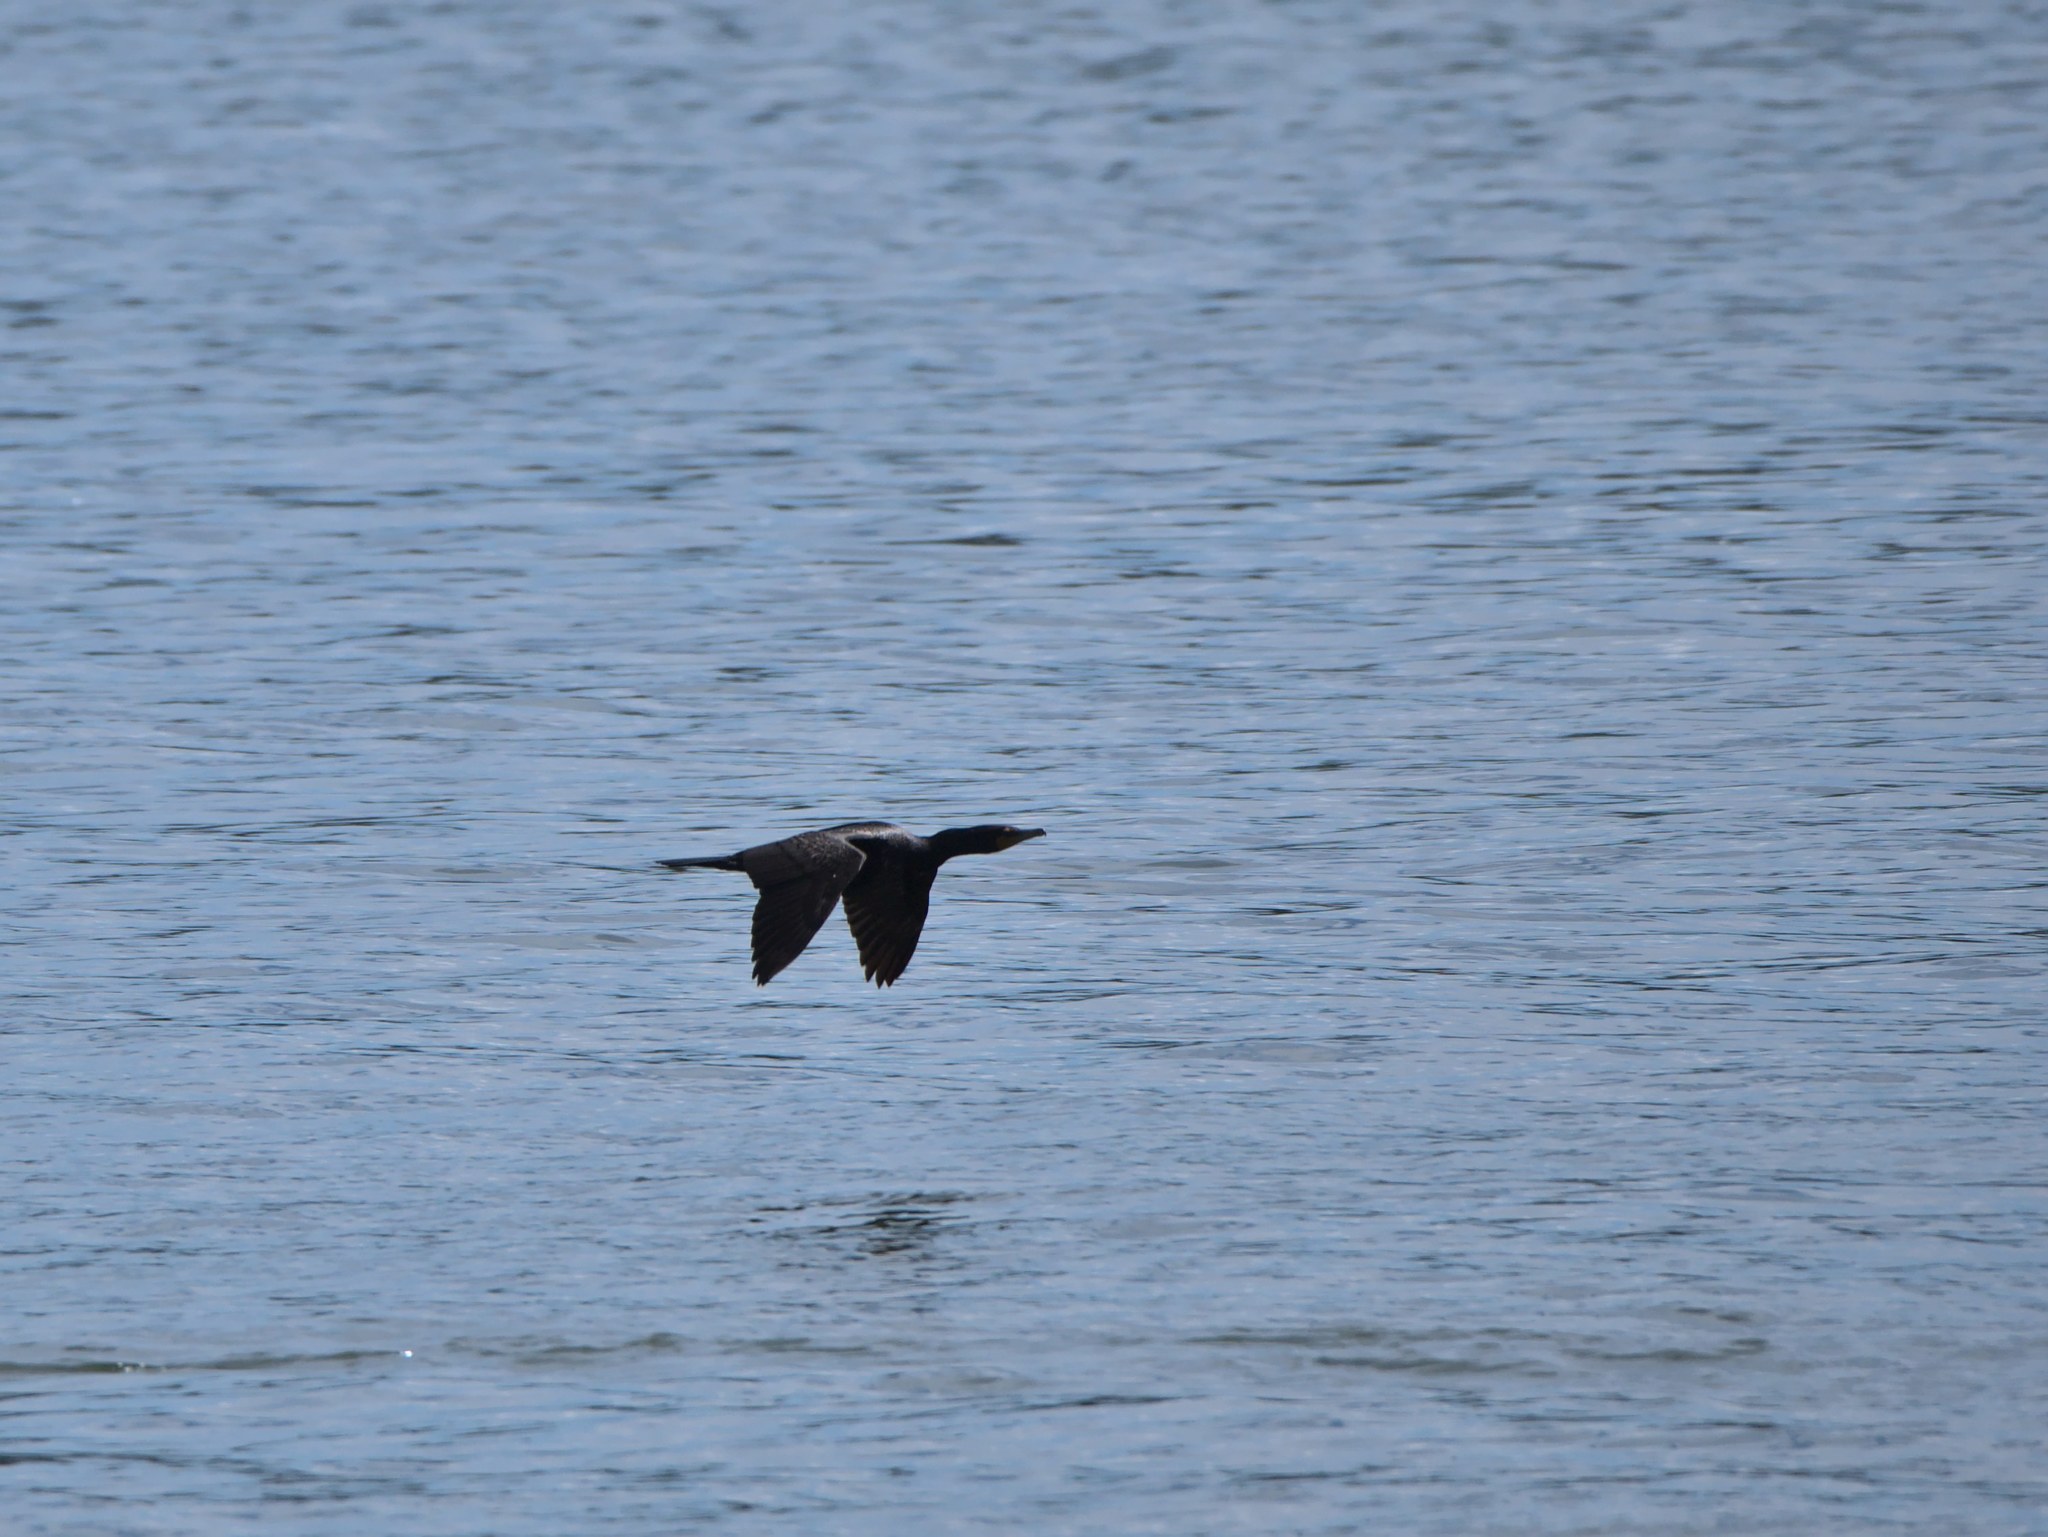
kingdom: Animalia
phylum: Chordata
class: Aves
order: Suliformes
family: Phalacrocoracidae
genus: Phalacrocorax
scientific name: Phalacrocorax auritus
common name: Double-crested cormorant
